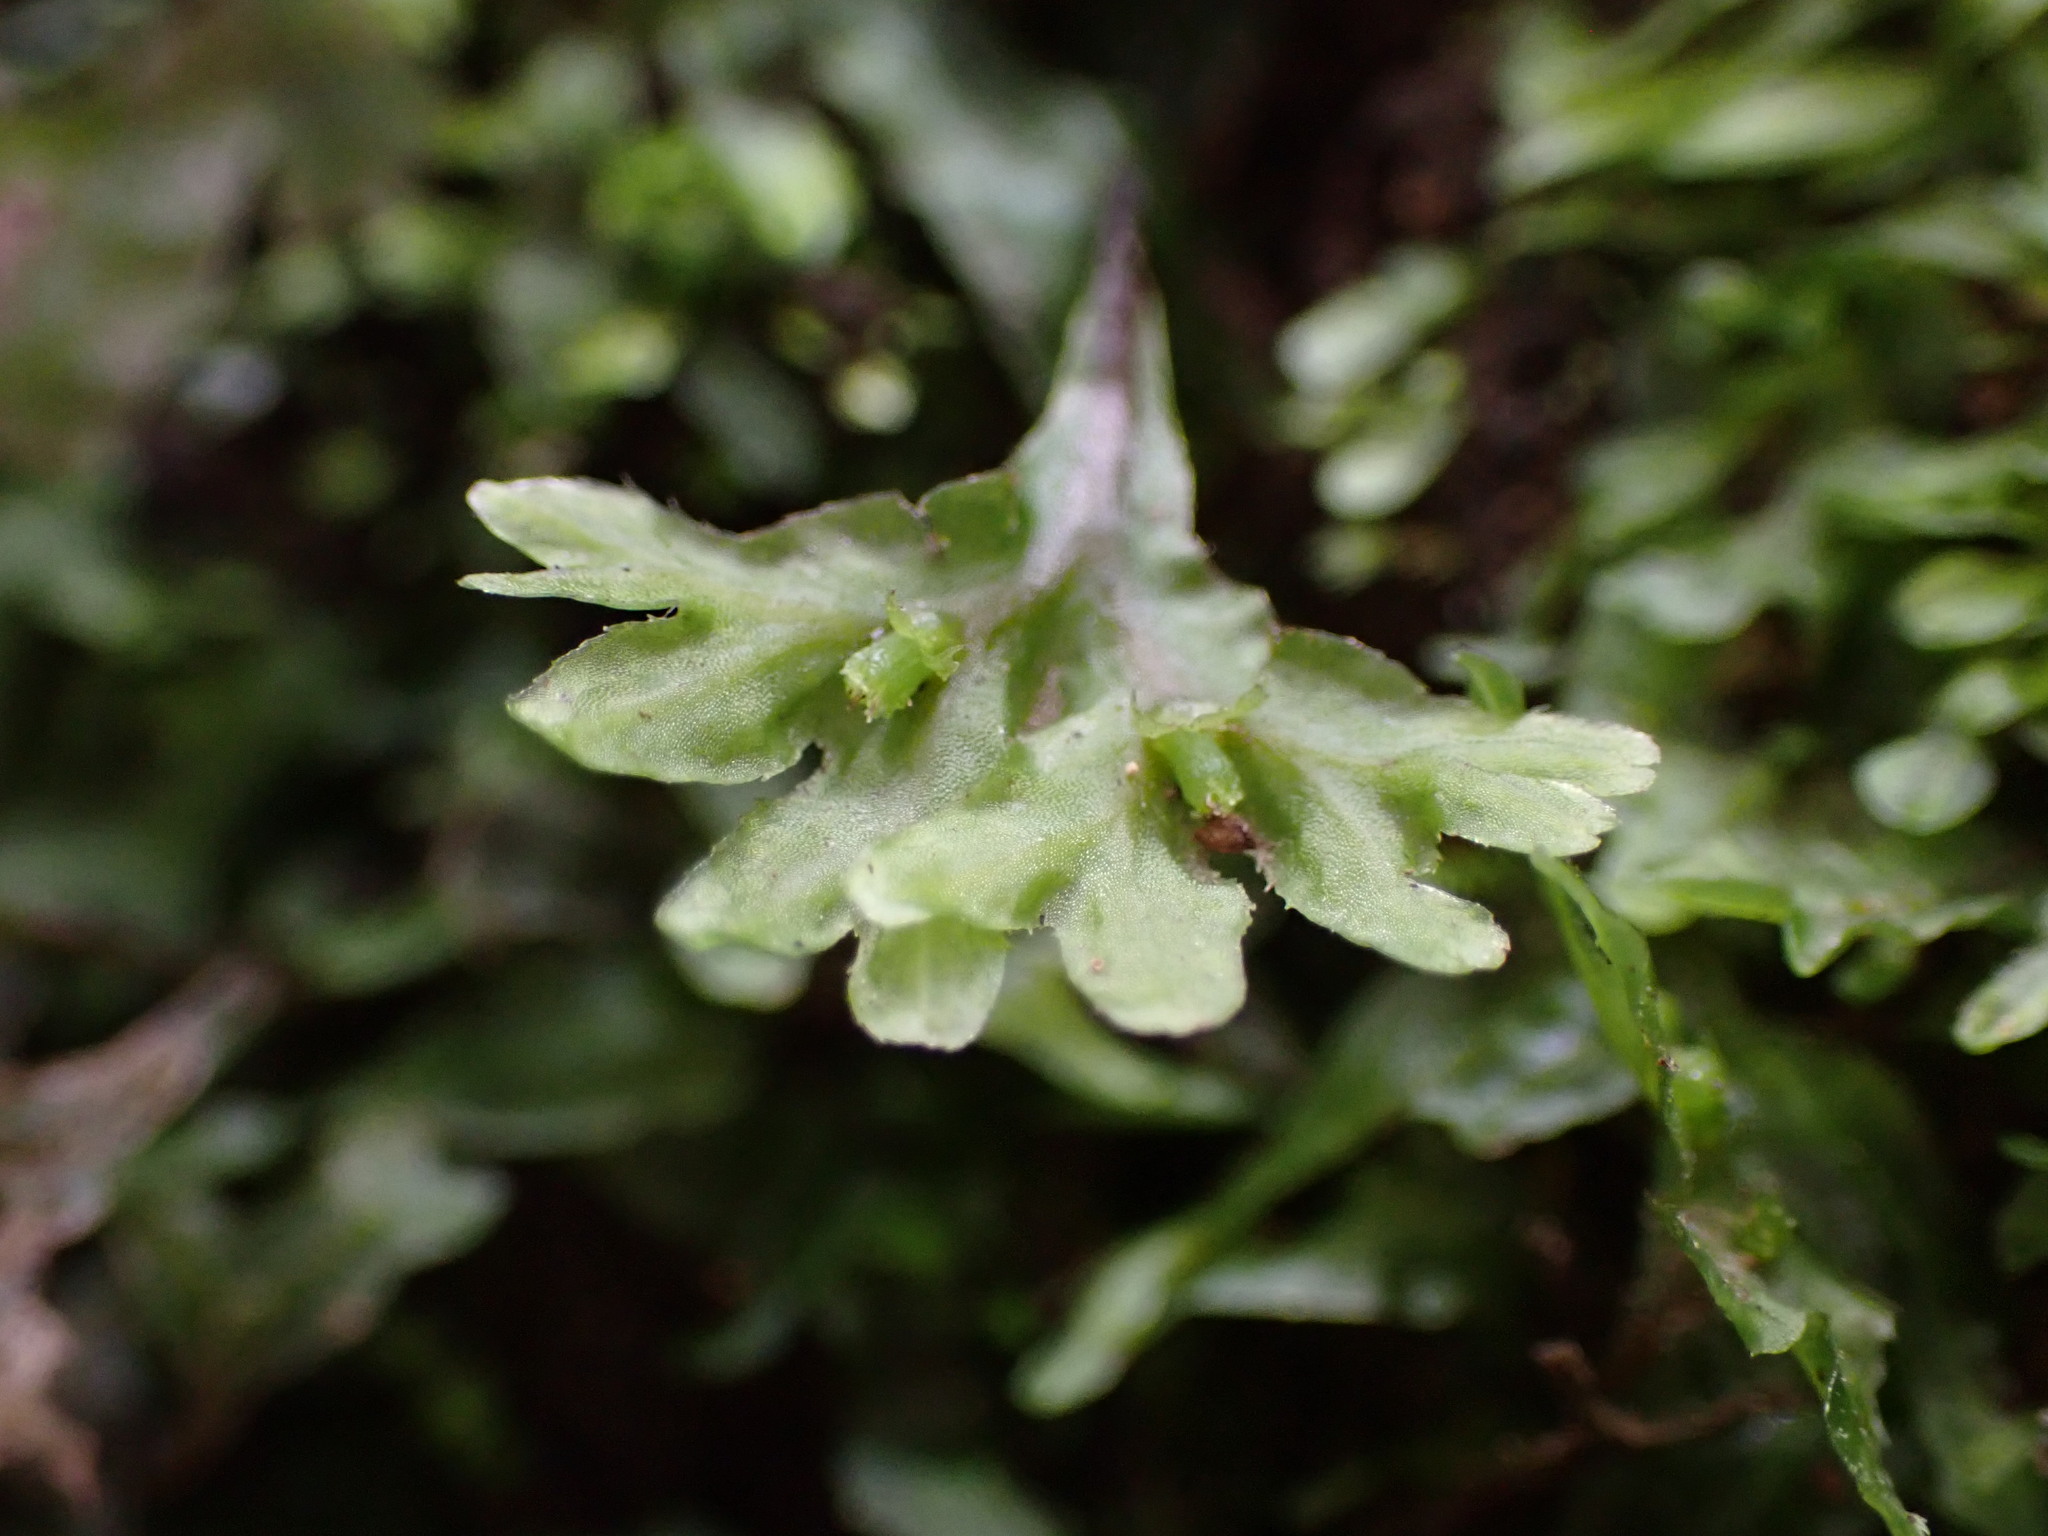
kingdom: Plantae
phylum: Marchantiophyta
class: Jungermanniopsida
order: Pallaviciniales
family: Pallaviciniaceae
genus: Symphyogyna
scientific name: Symphyogyna hymenophyllum
